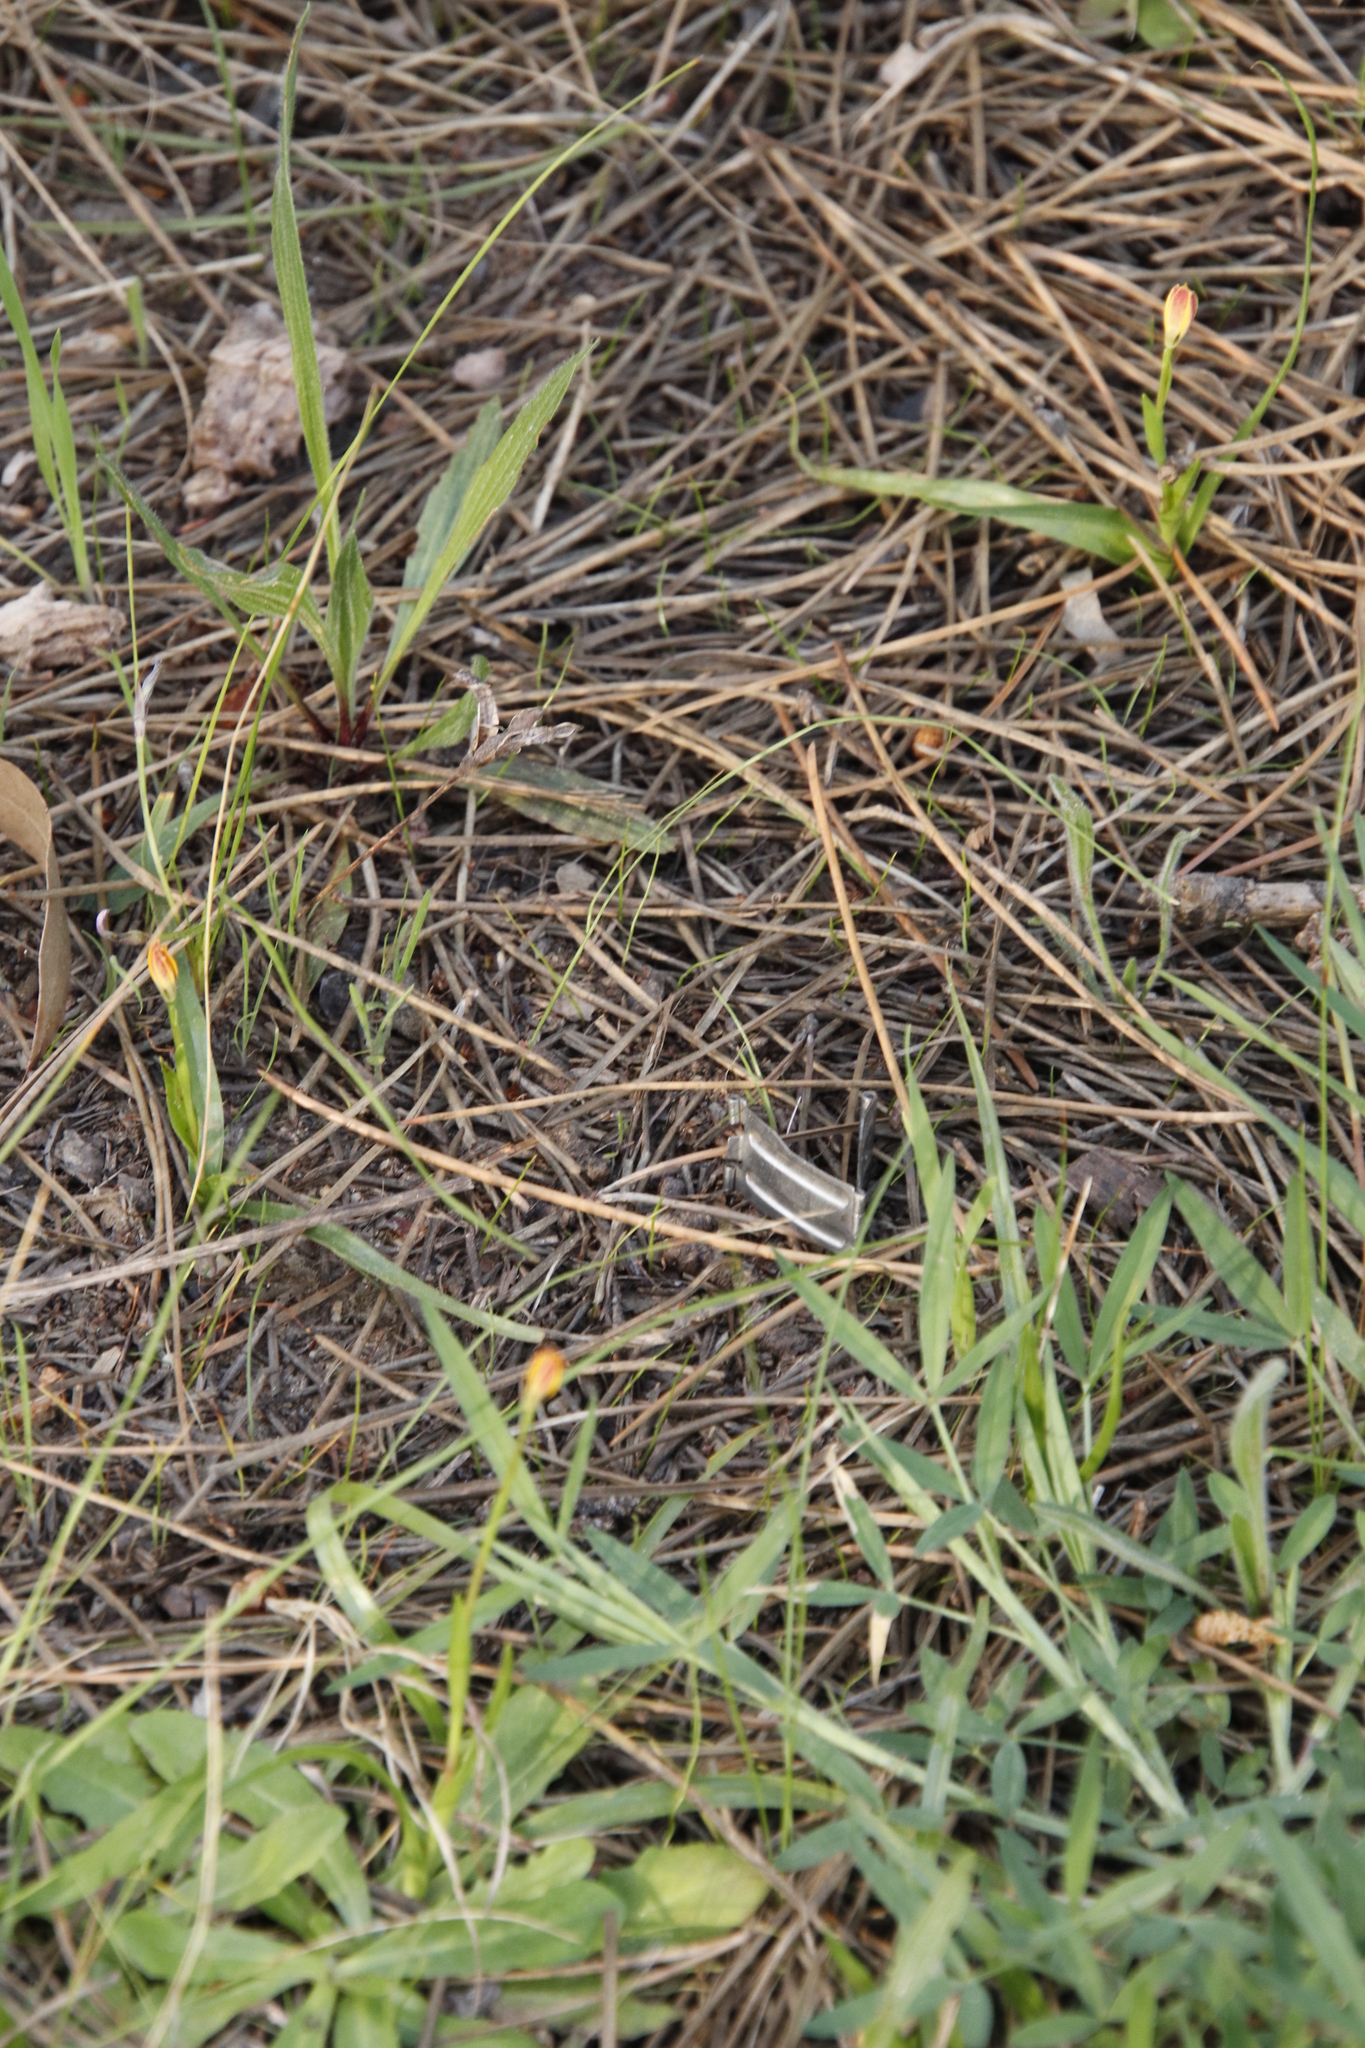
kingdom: Plantae
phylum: Tracheophyta
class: Liliopsida
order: Liliales
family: Colchicaceae
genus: Baeometra
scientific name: Baeometra uniflora
